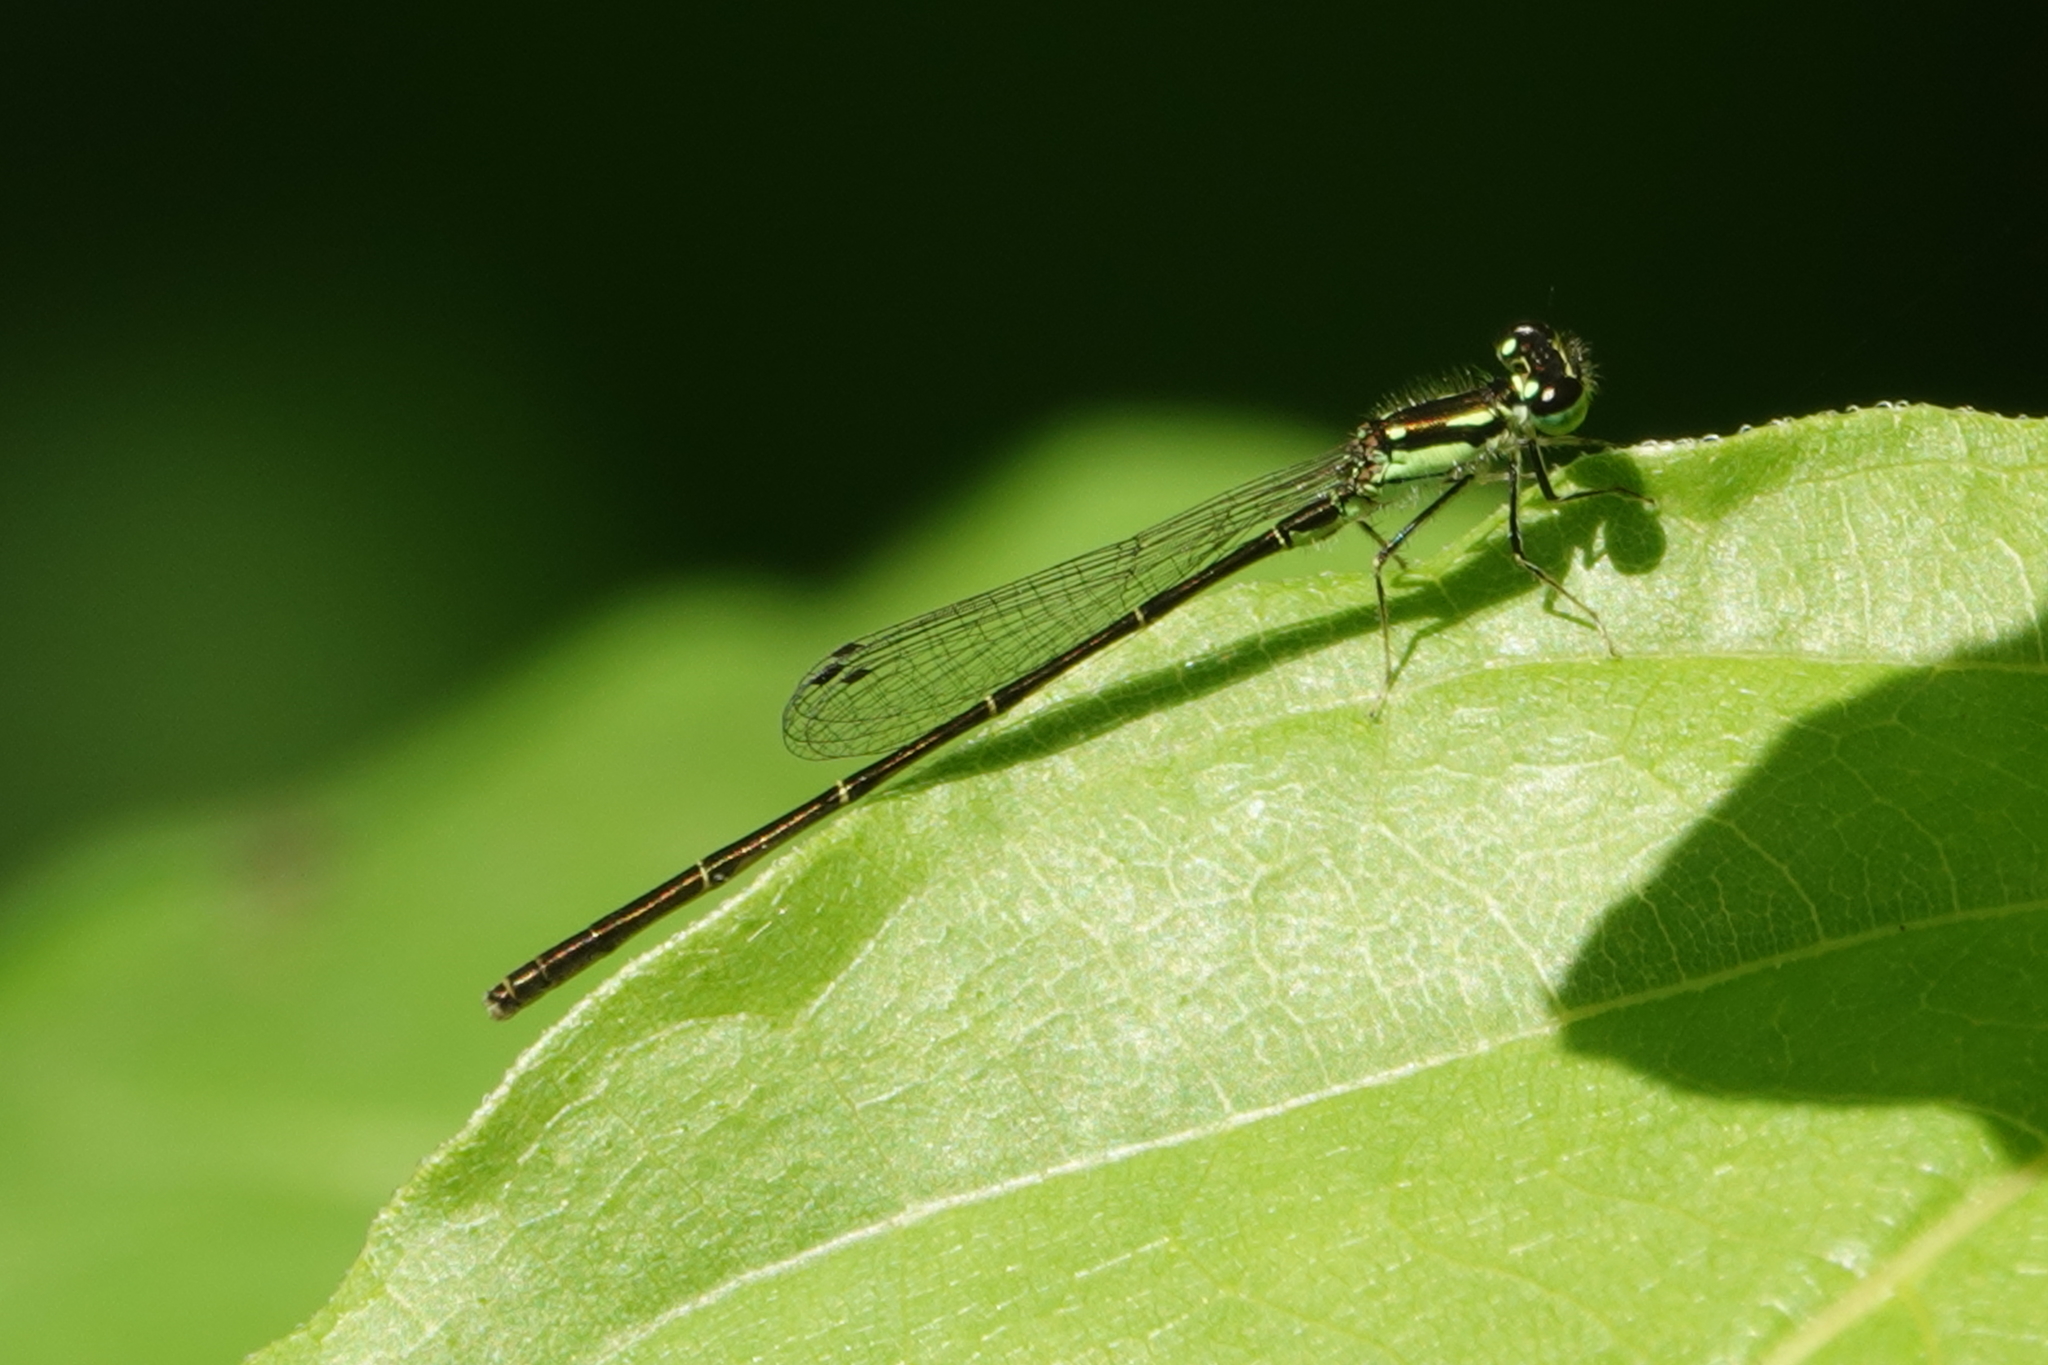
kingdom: Animalia
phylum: Arthropoda
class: Insecta
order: Odonata
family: Coenagrionidae
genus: Ischnura
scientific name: Ischnura posita
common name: Fragile forktail
